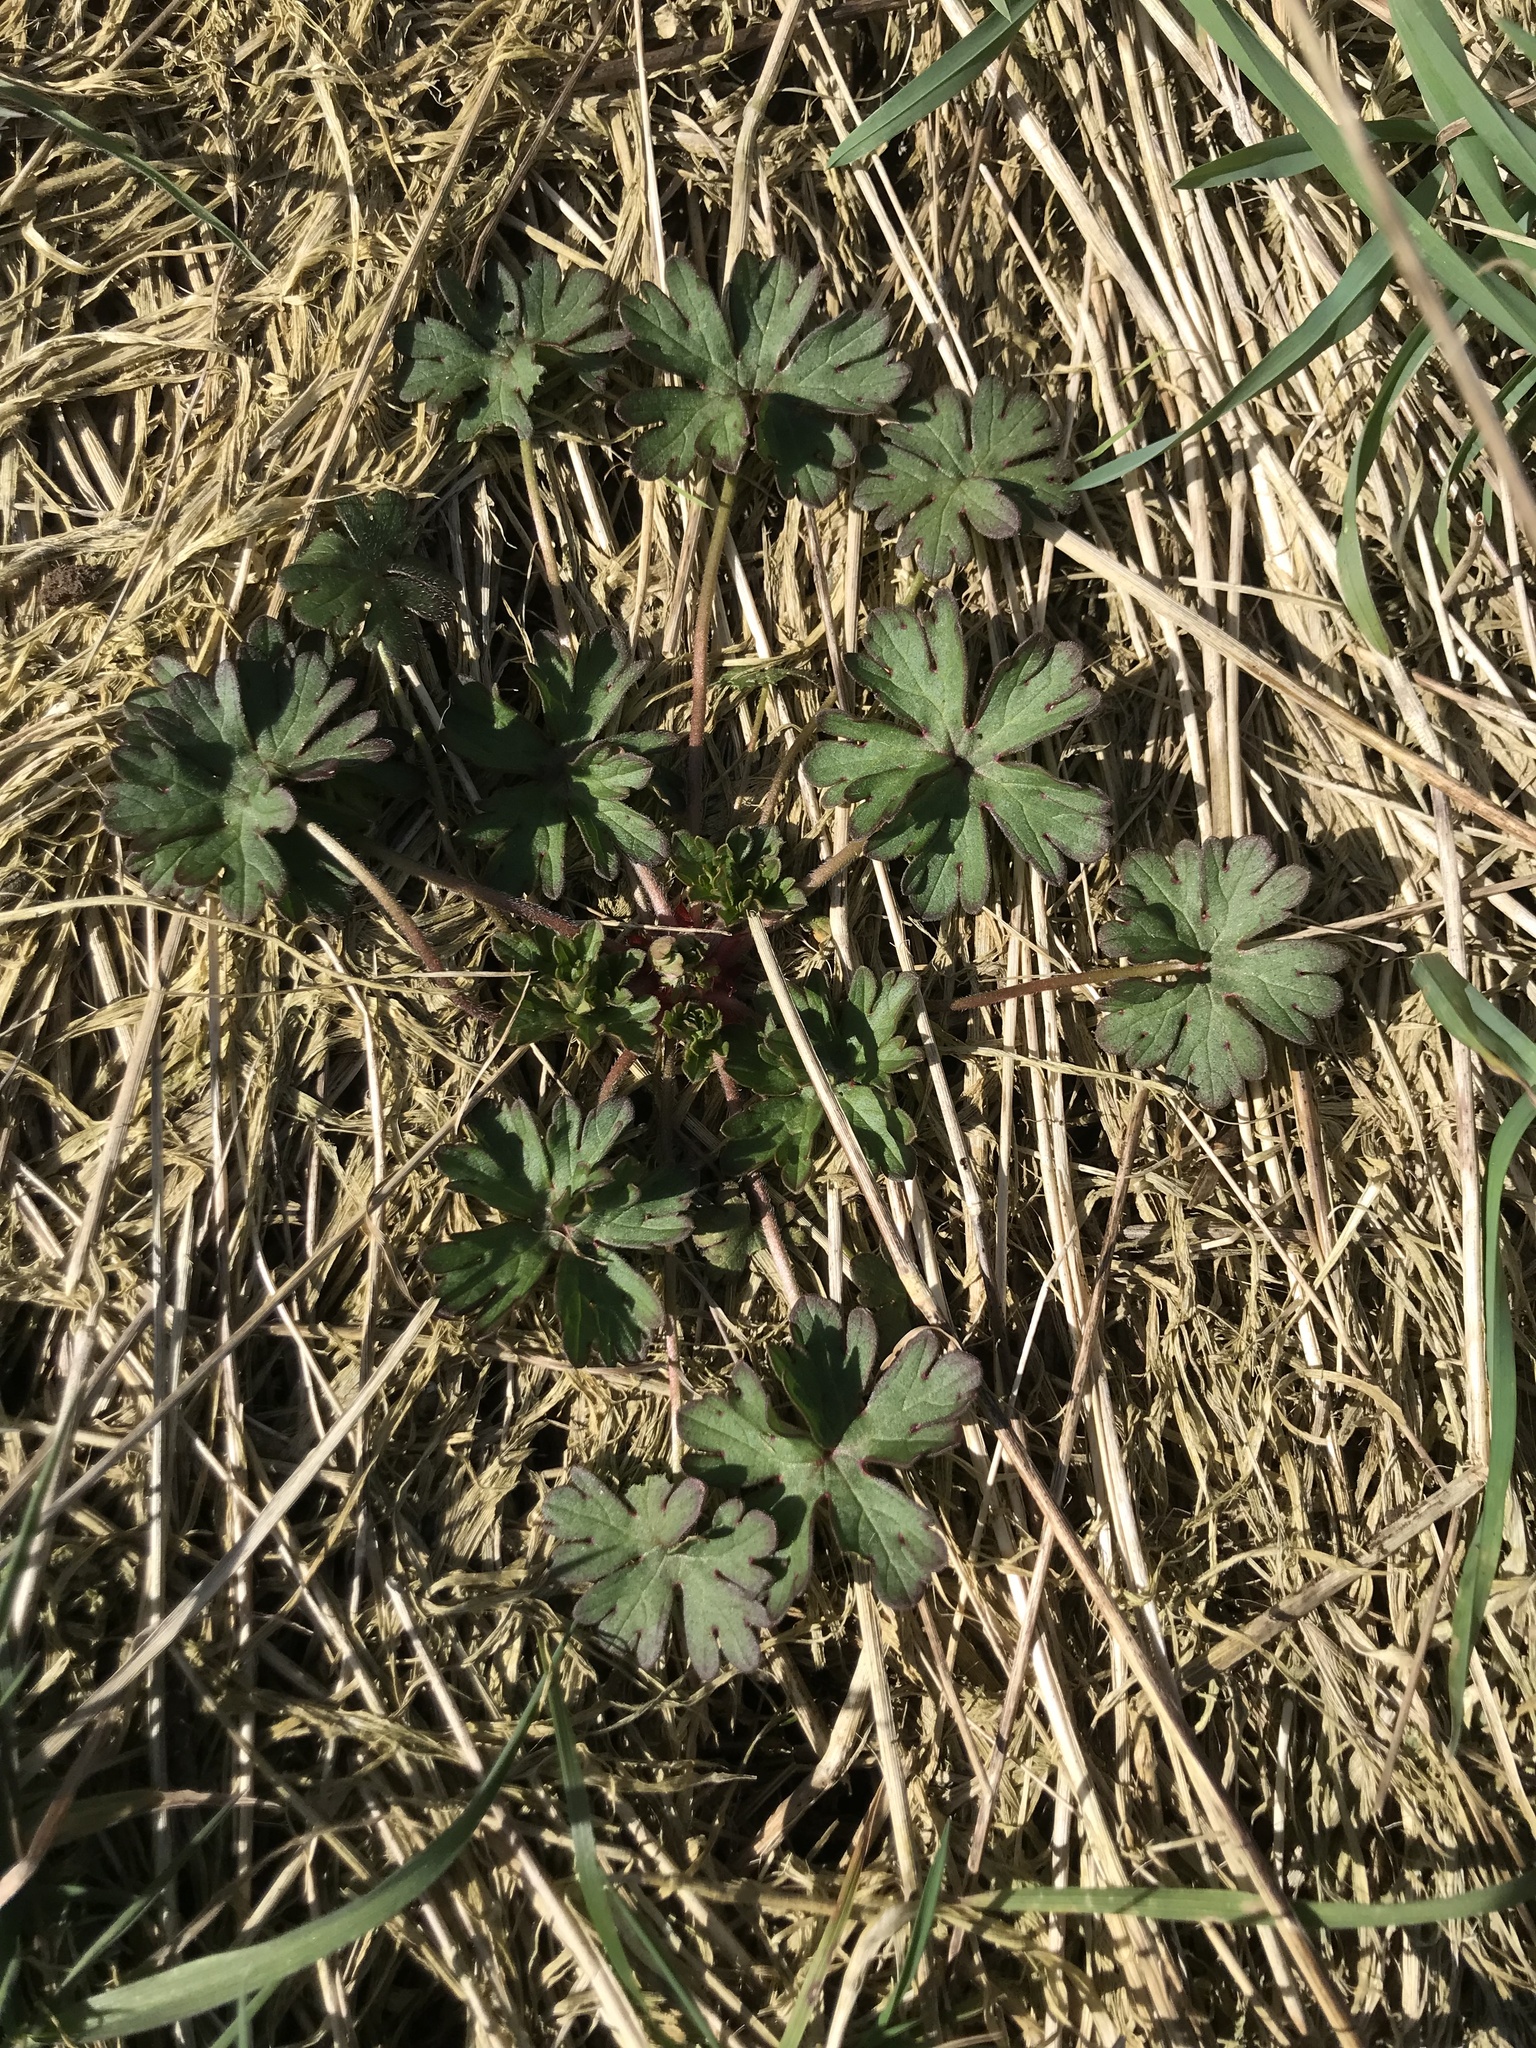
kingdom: Plantae
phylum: Tracheophyta
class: Magnoliopsida
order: Geraniales
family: Geraniaceae
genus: Geranium
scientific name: Geranium dissectum
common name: Cut-leaved crane's-bill
